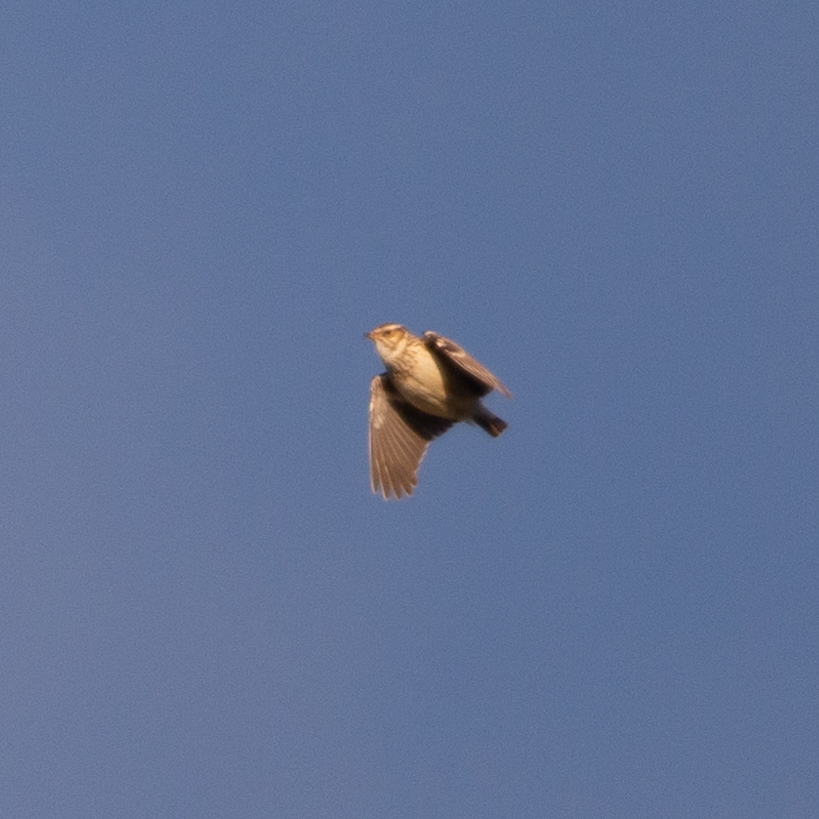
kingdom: Animalia
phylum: Chordata
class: Aves
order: Passeriformes
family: Alaudidae
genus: Lullula
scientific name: Lullula arborea
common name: Woodlark
